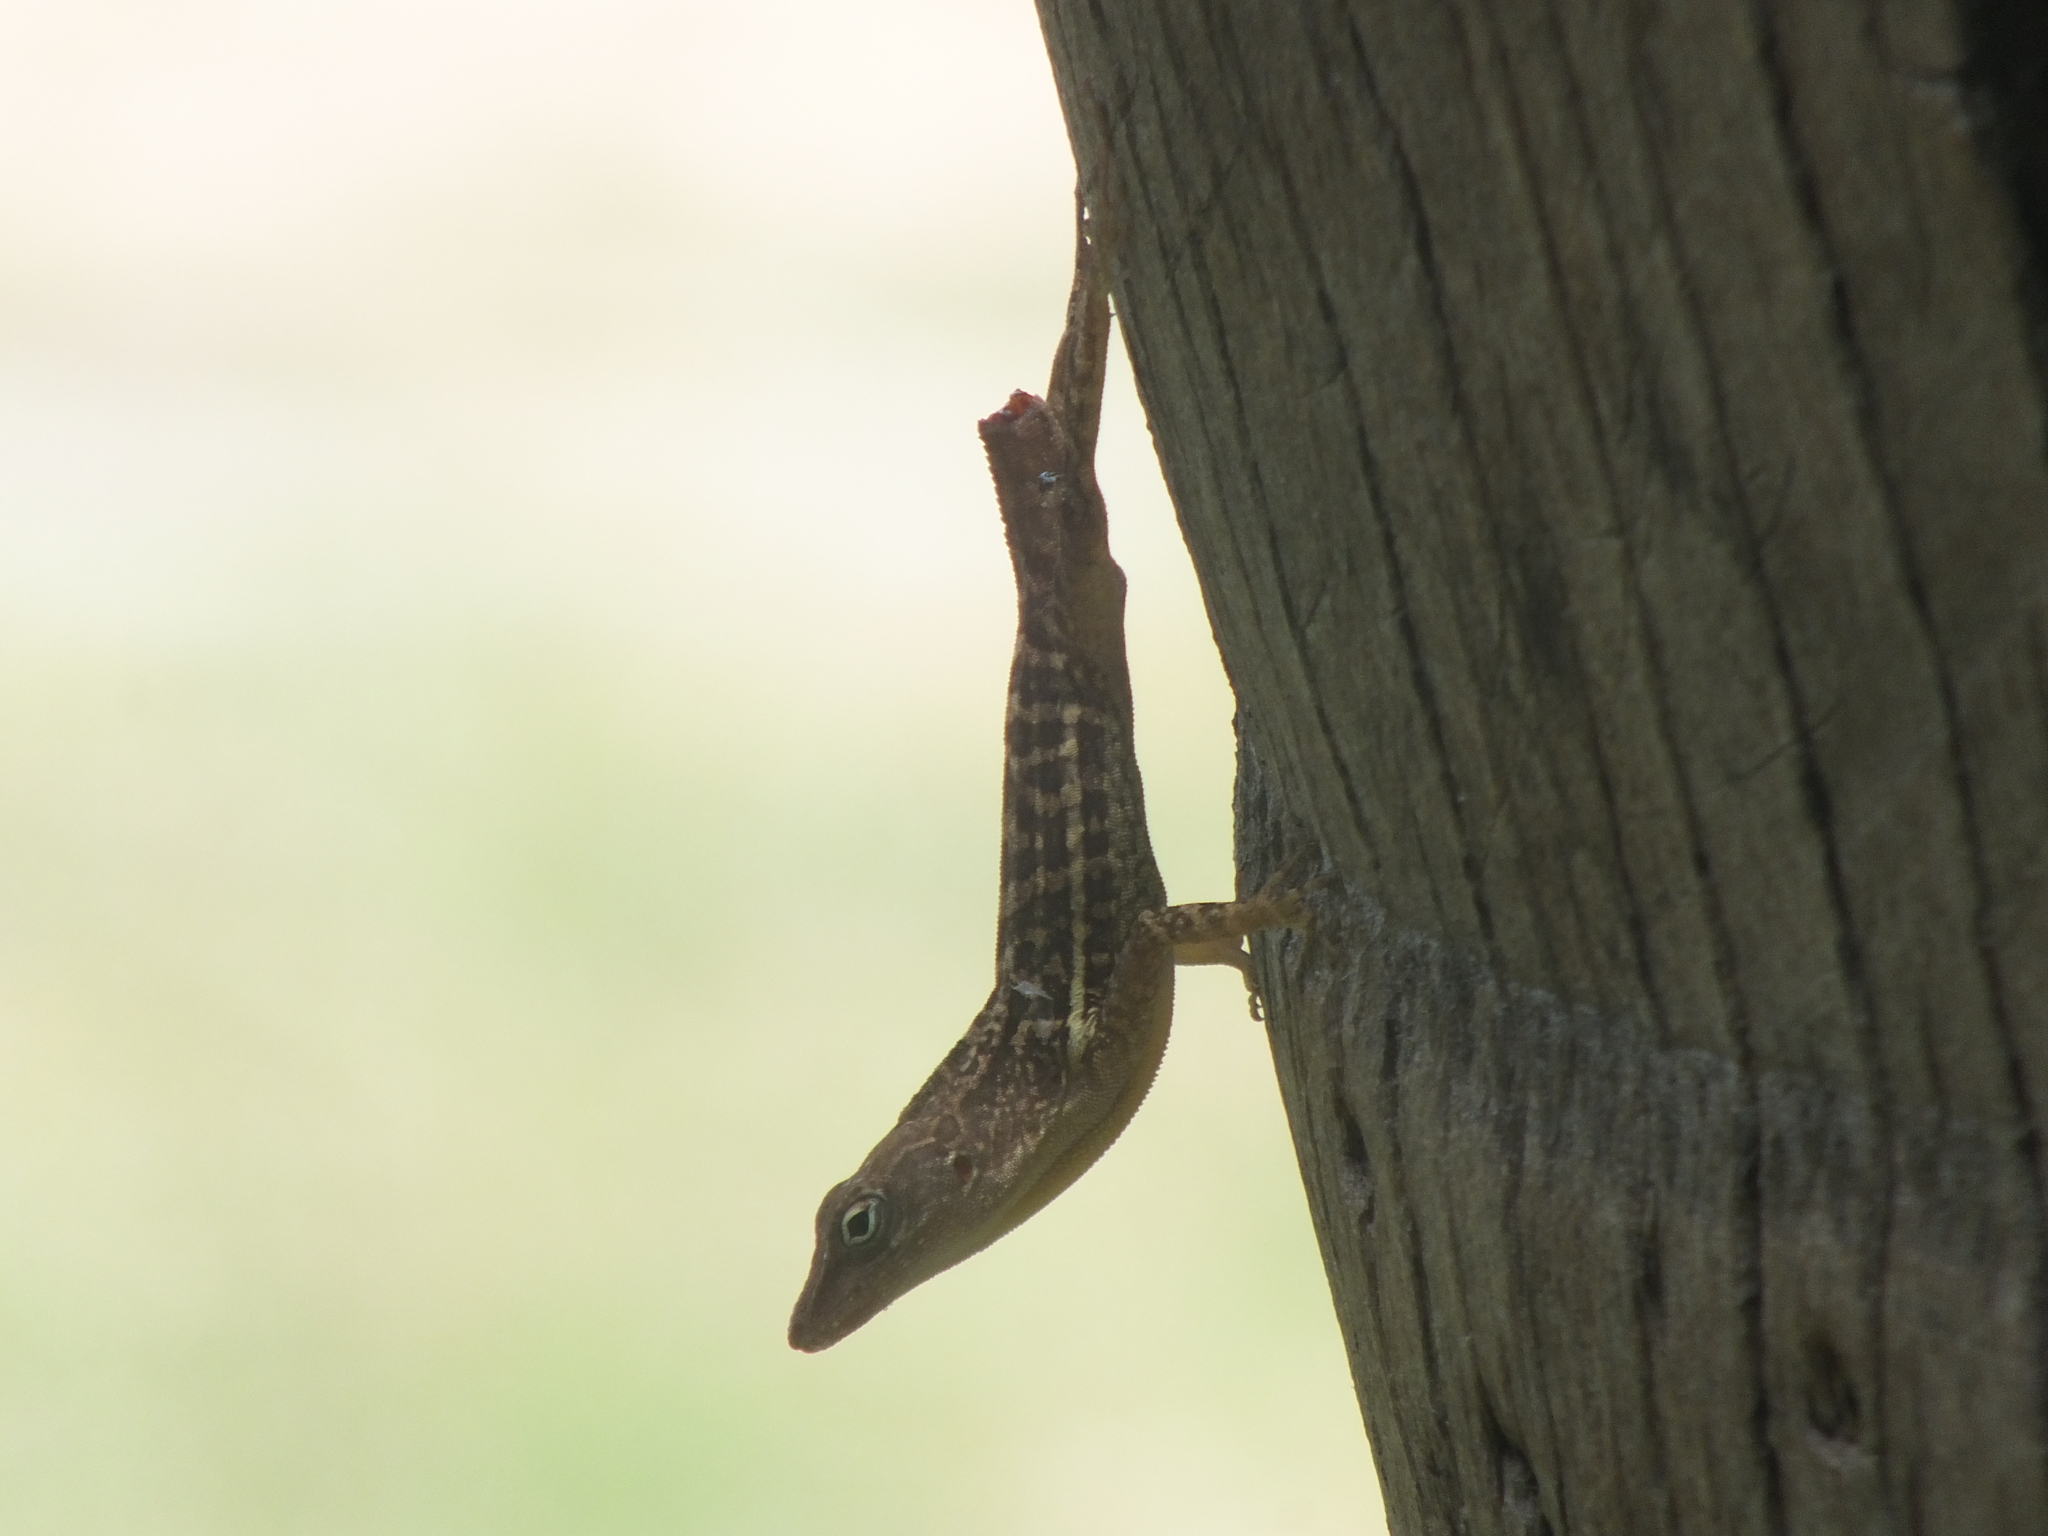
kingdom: Animalia
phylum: Chordata
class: Squamata
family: Dactyloidae
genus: Anolis
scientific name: Anolis lineatopus
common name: Stripefoot anole
